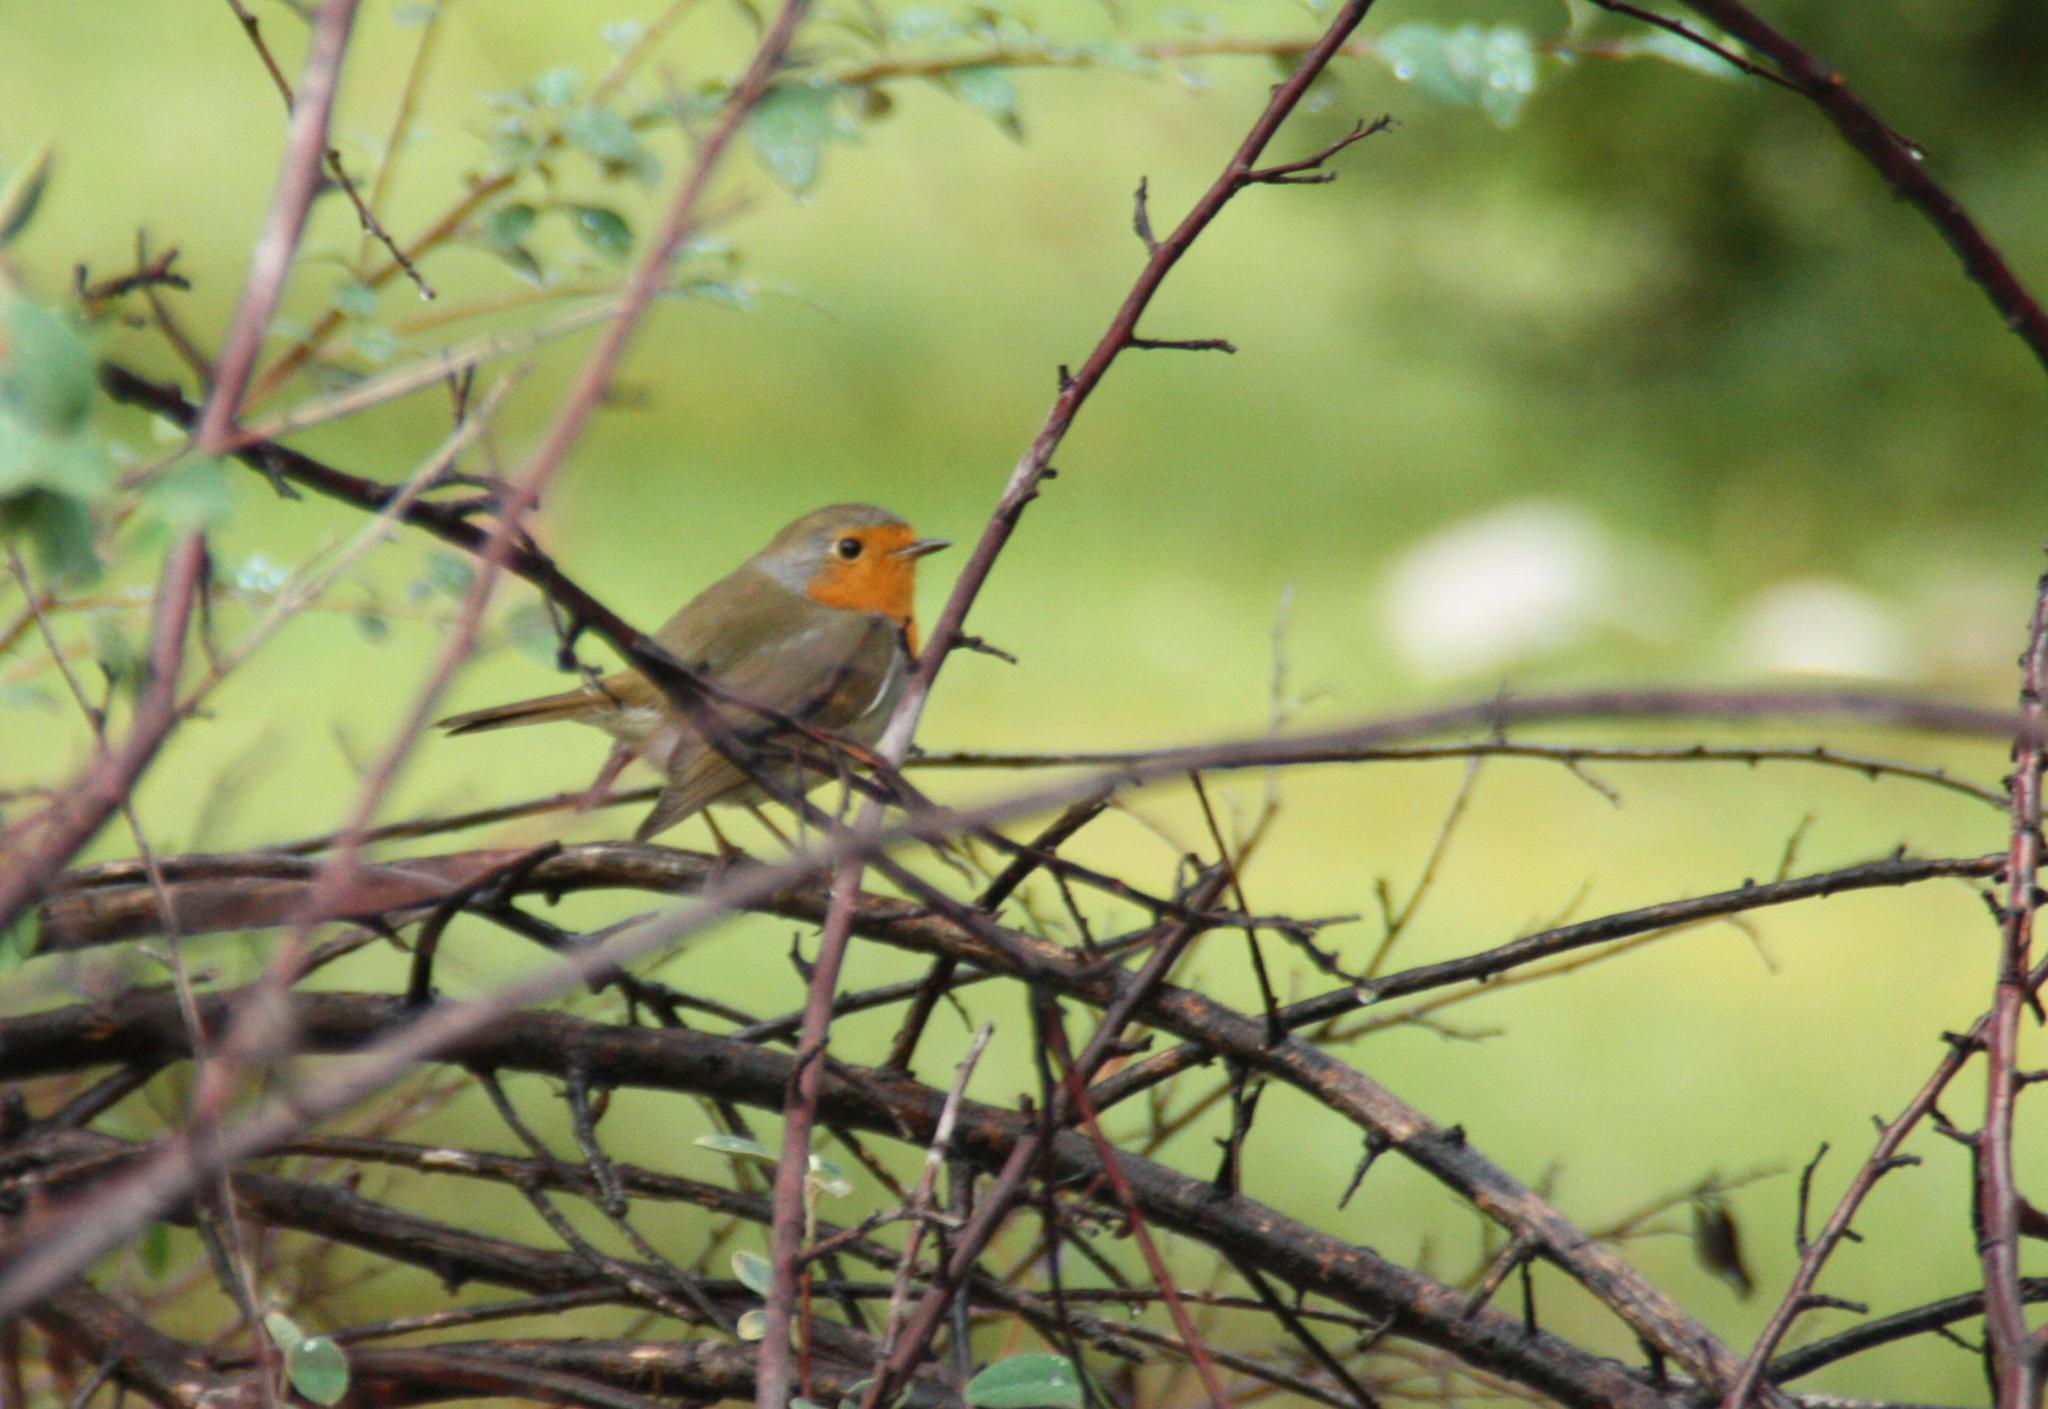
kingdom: Animalia
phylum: Chordata
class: Aves
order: Passeriformes
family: Muscicapidae
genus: Erithacus
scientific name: Erithacus rubecula
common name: European robin
